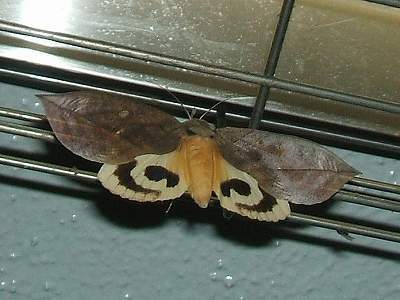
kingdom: Animalia
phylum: Arthropoda
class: Insecta
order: Lepidoptera
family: Erebidae
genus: Eudocima
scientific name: Eudocima tyrannus
